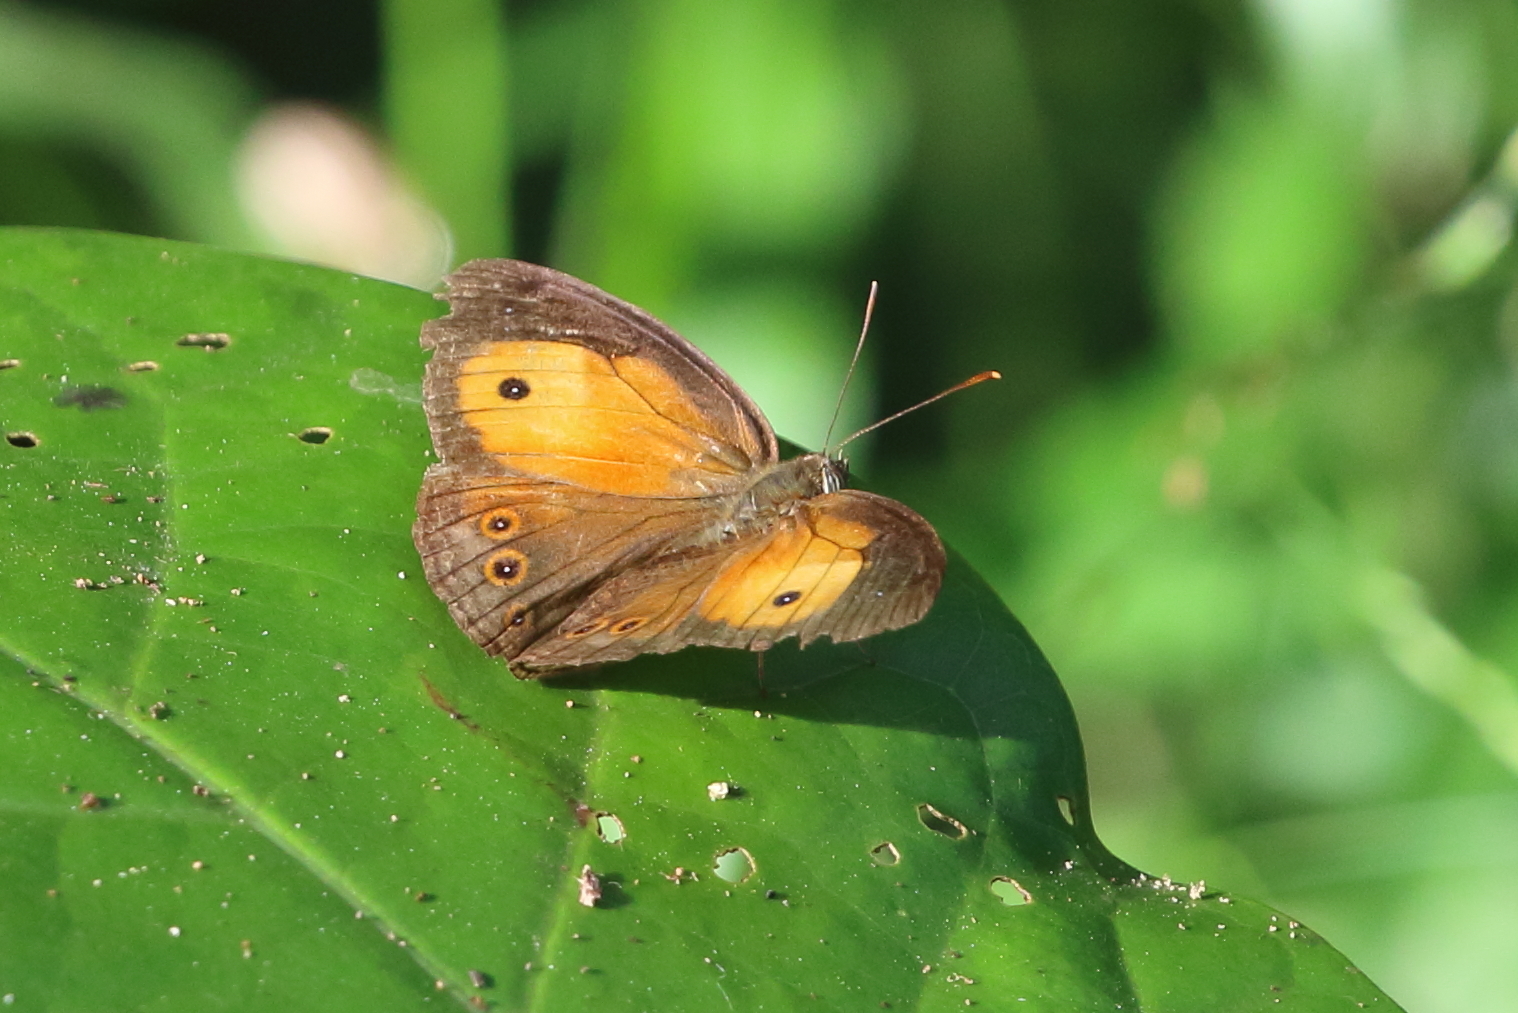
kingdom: Animalia
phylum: Arthropoda
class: Insecta
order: Lepidoptera
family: Nymphalidae
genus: Mycalesis
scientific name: Mycalesis terminus
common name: Orange bushbrown
